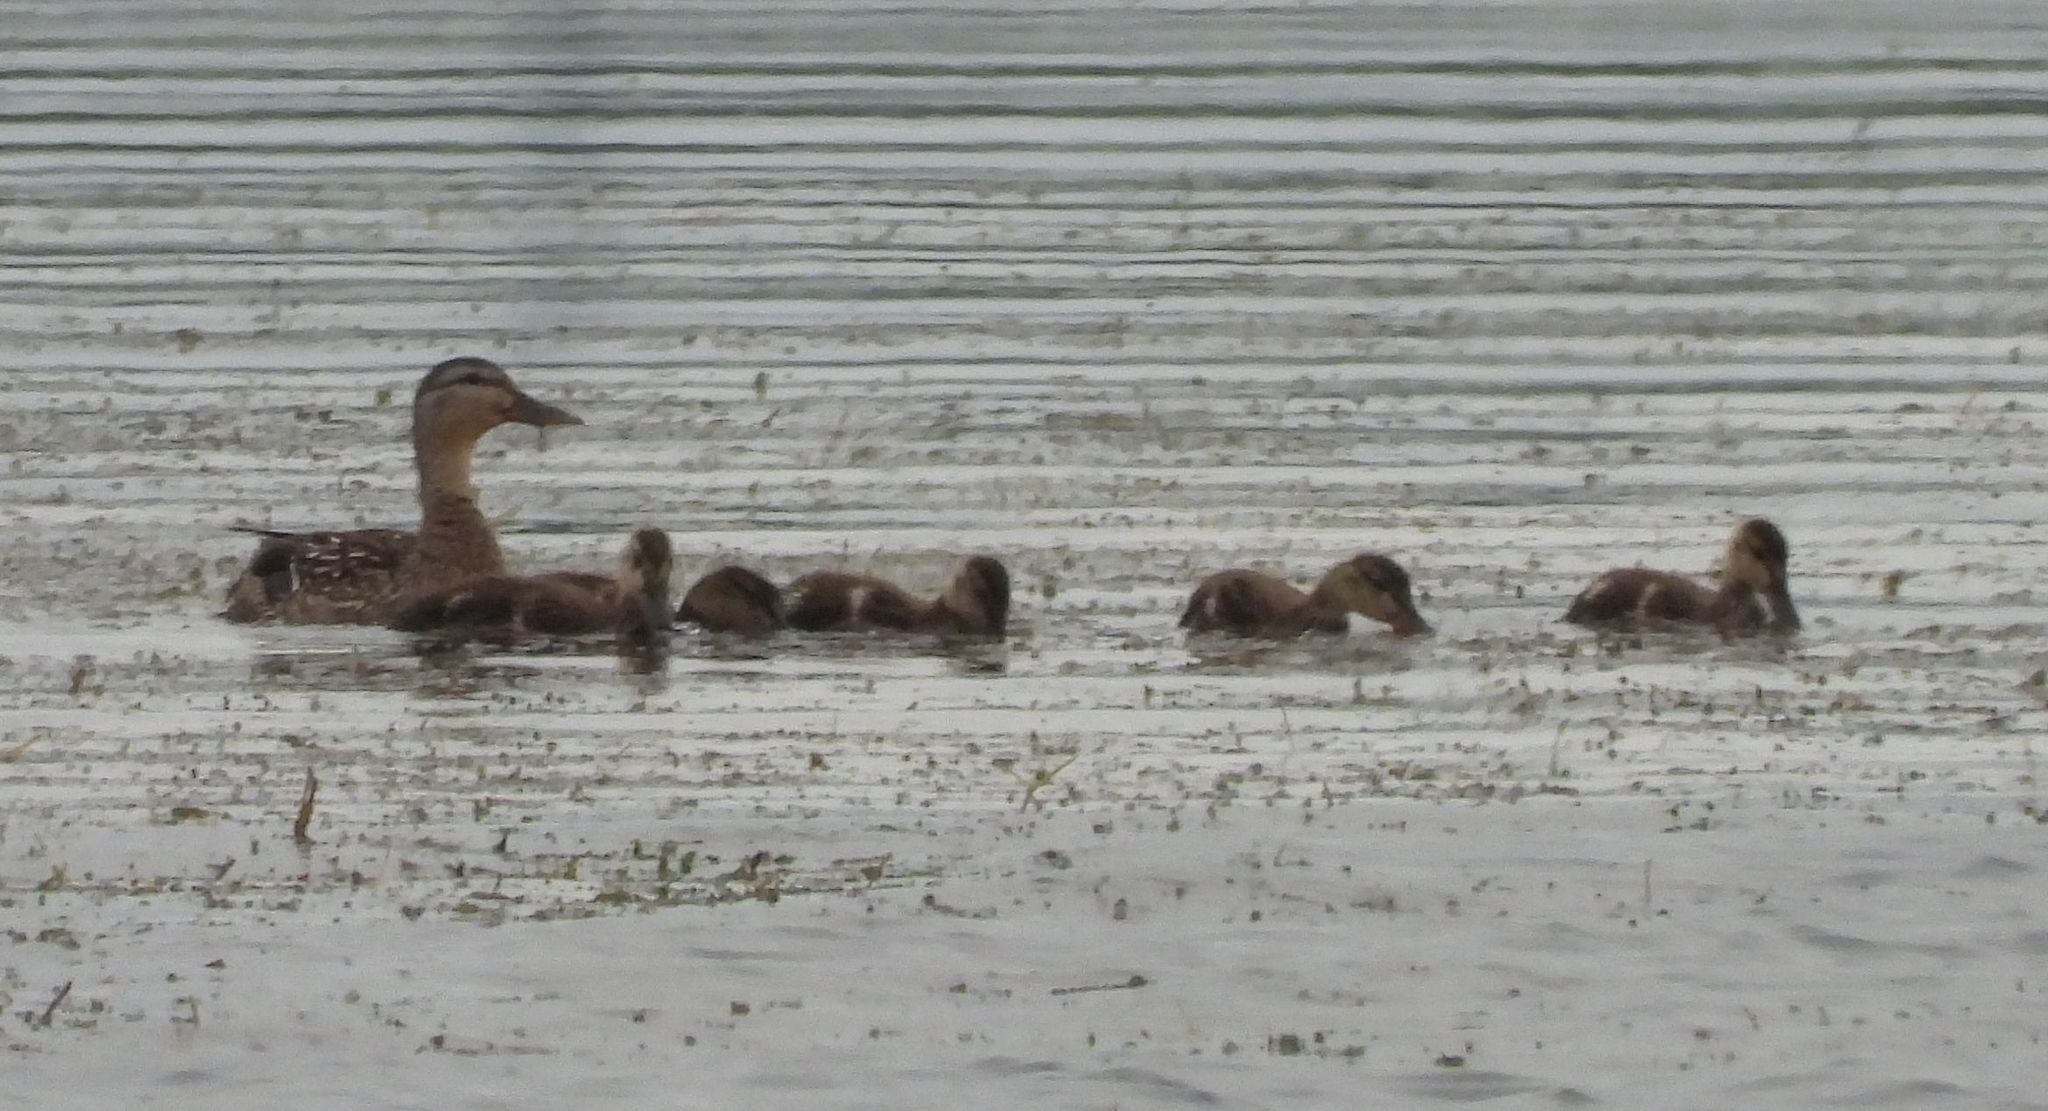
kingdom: Animalia
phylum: Chordata
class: Aves
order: Anseriformes
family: Anatidae
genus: Anas
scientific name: Anas platyrhynchos
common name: Mallard
